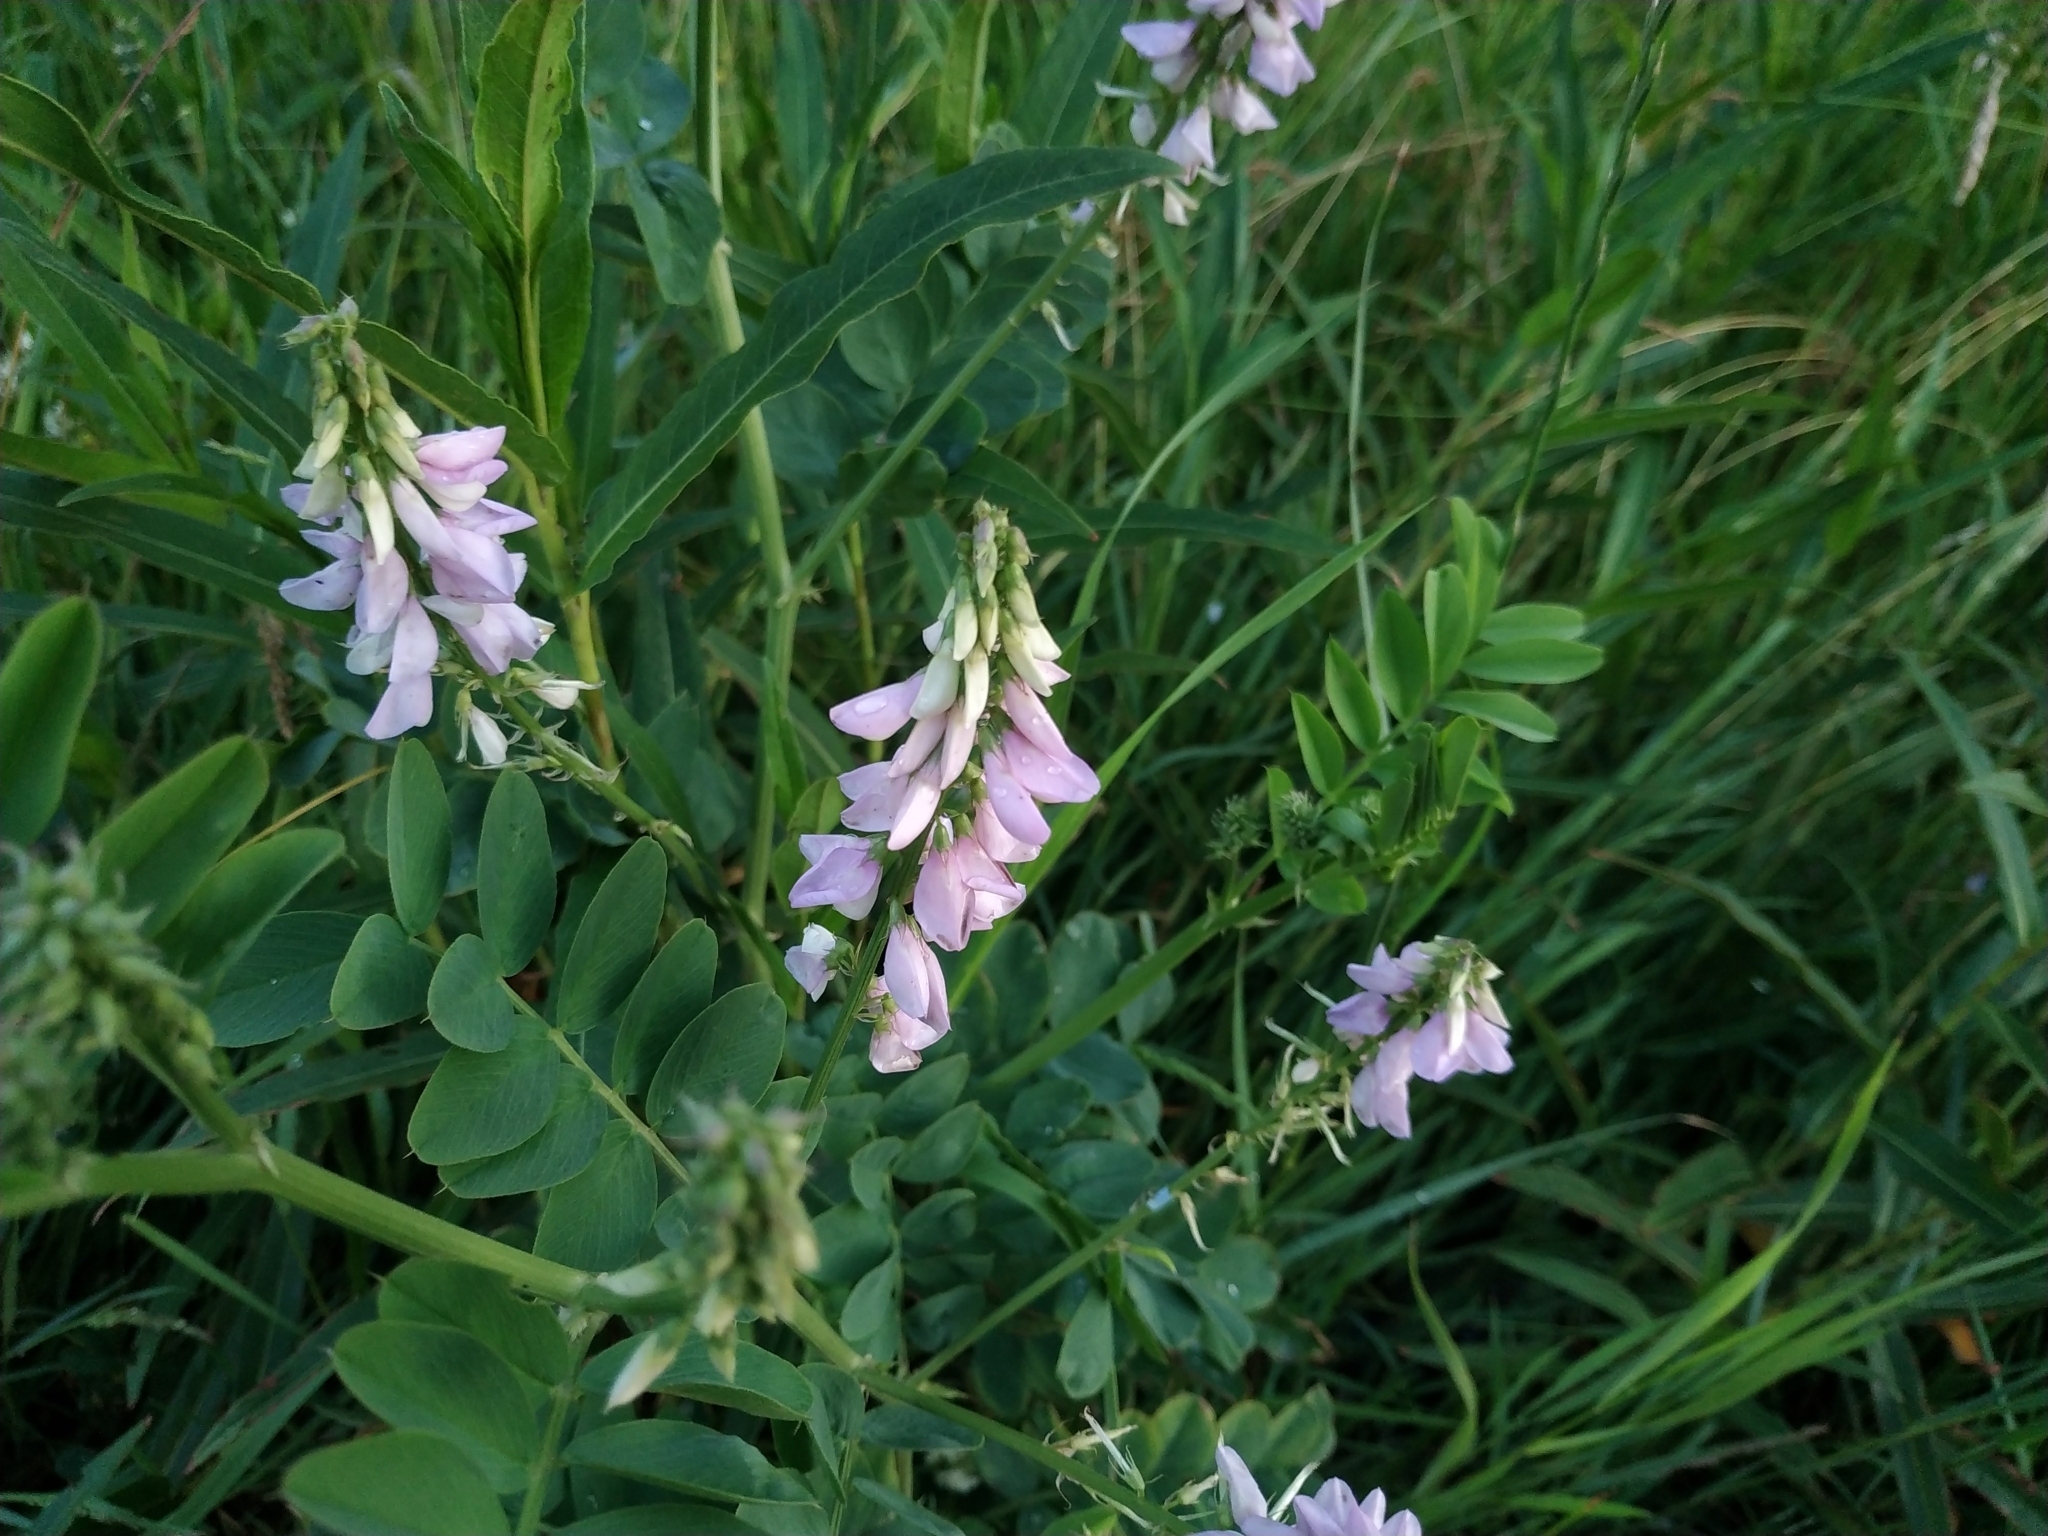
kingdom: Plantae
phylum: Tracheophyta
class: Magnoliopsida
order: Fabales
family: Fabaceae
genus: Galega
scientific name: Galega officinalis
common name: Goat's-rue
